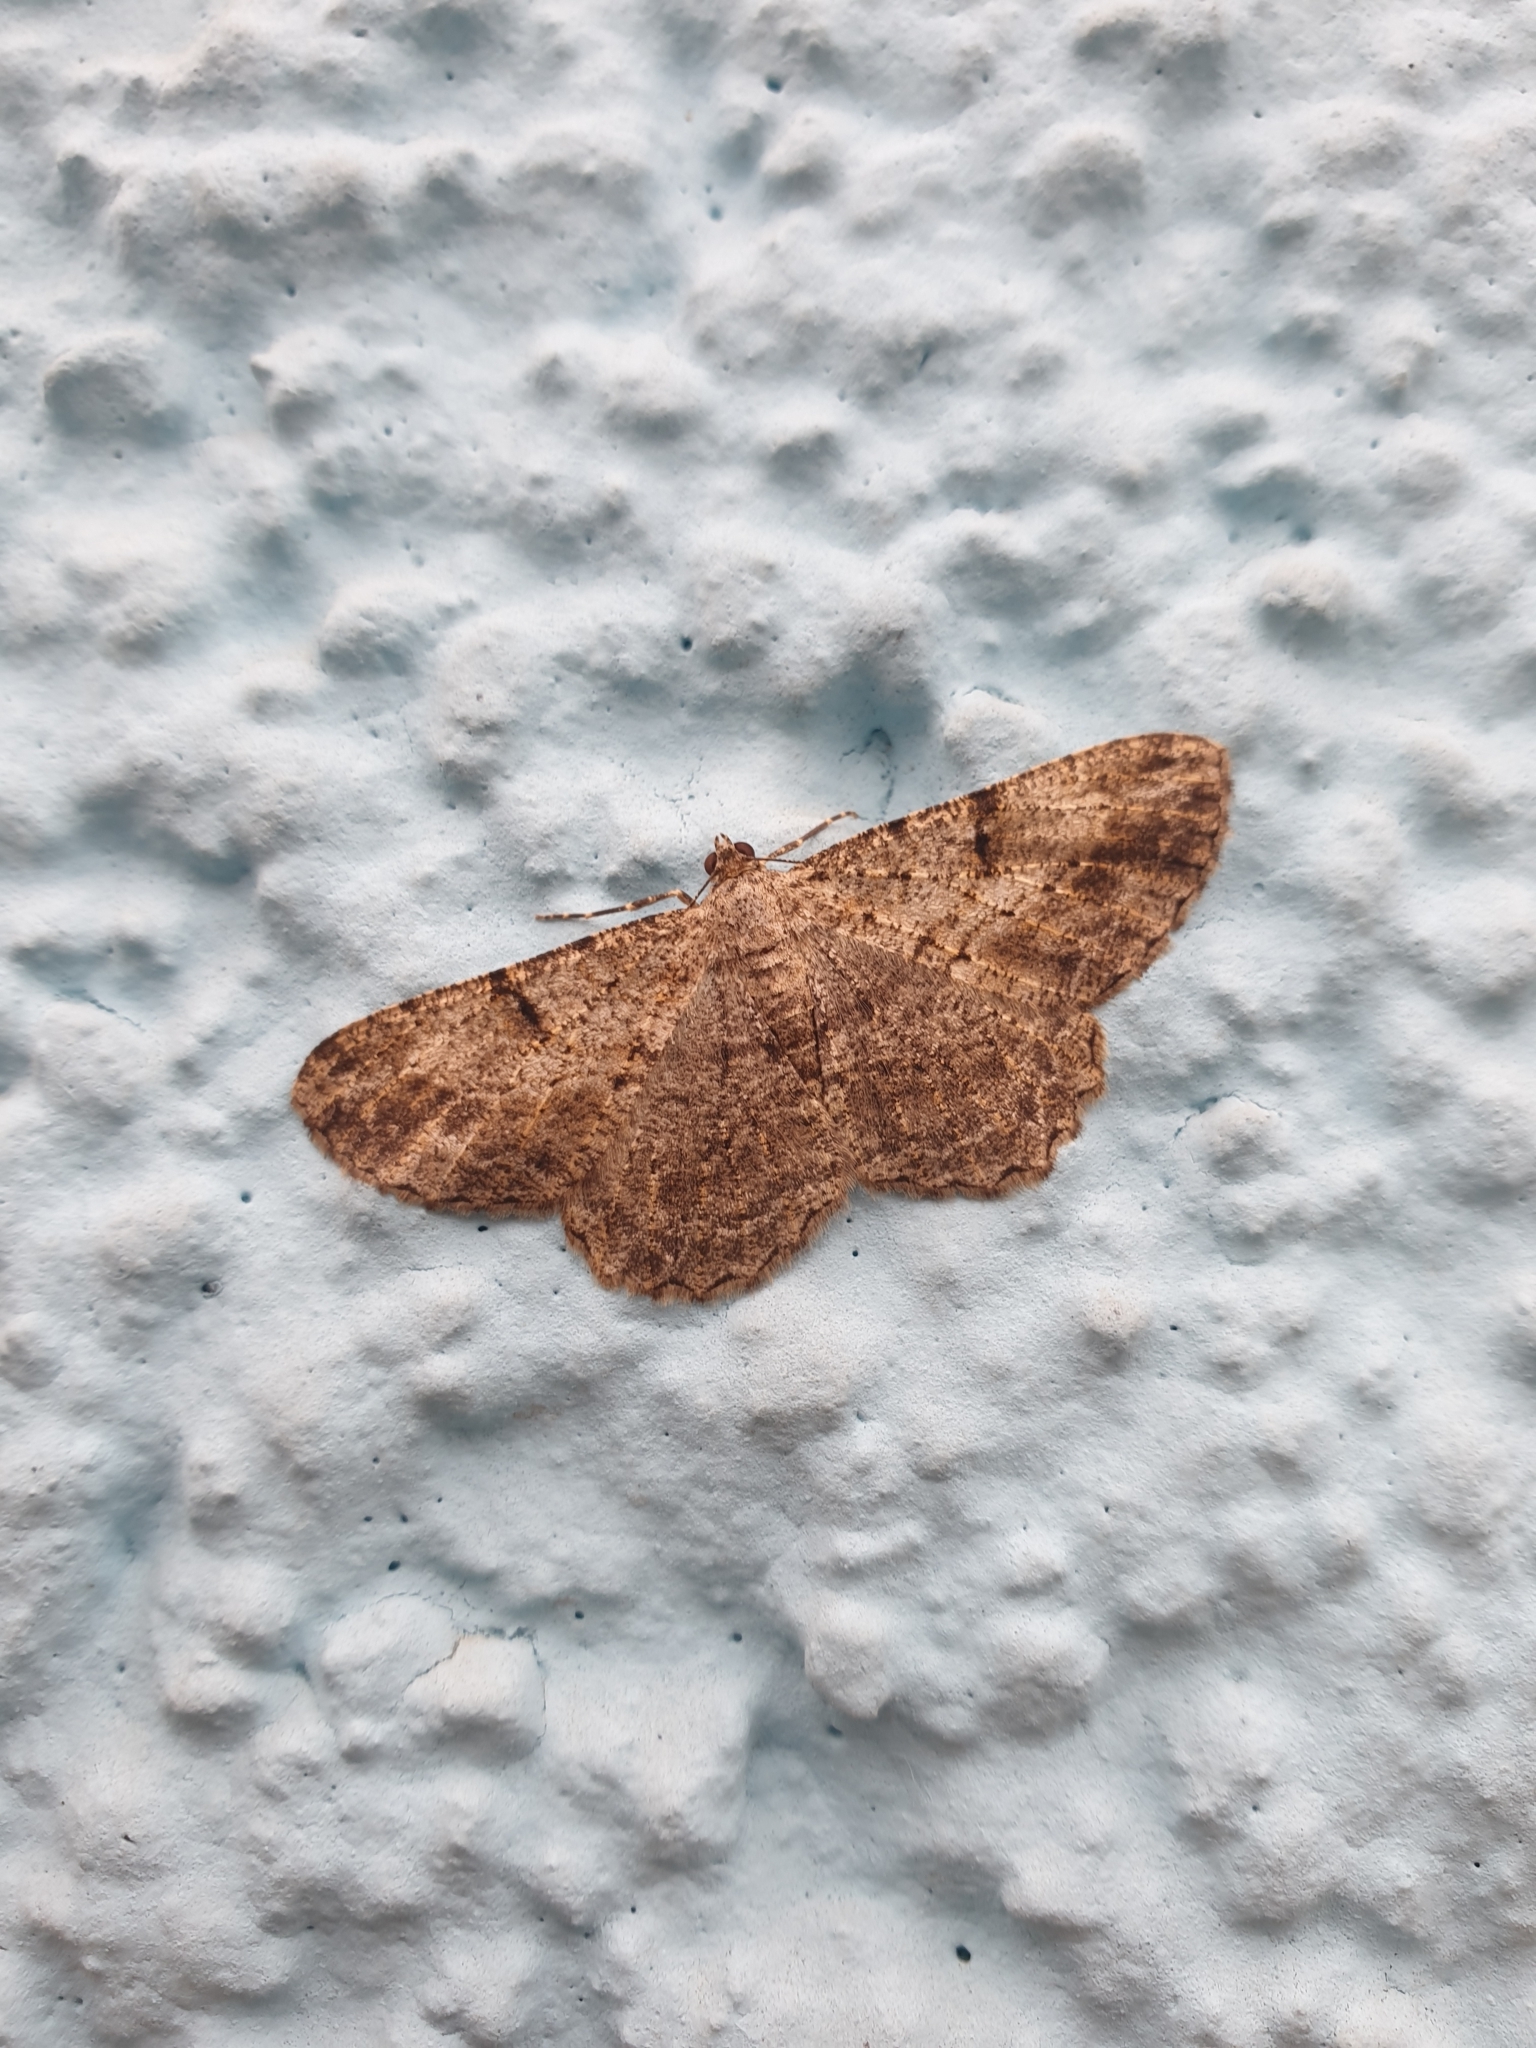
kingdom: Animalia
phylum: Arthropoda
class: Insecta
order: Lepidoptera
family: Geometridae
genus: Peribatodes
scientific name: Peribatodes rhomboidaria
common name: Willow beauty
